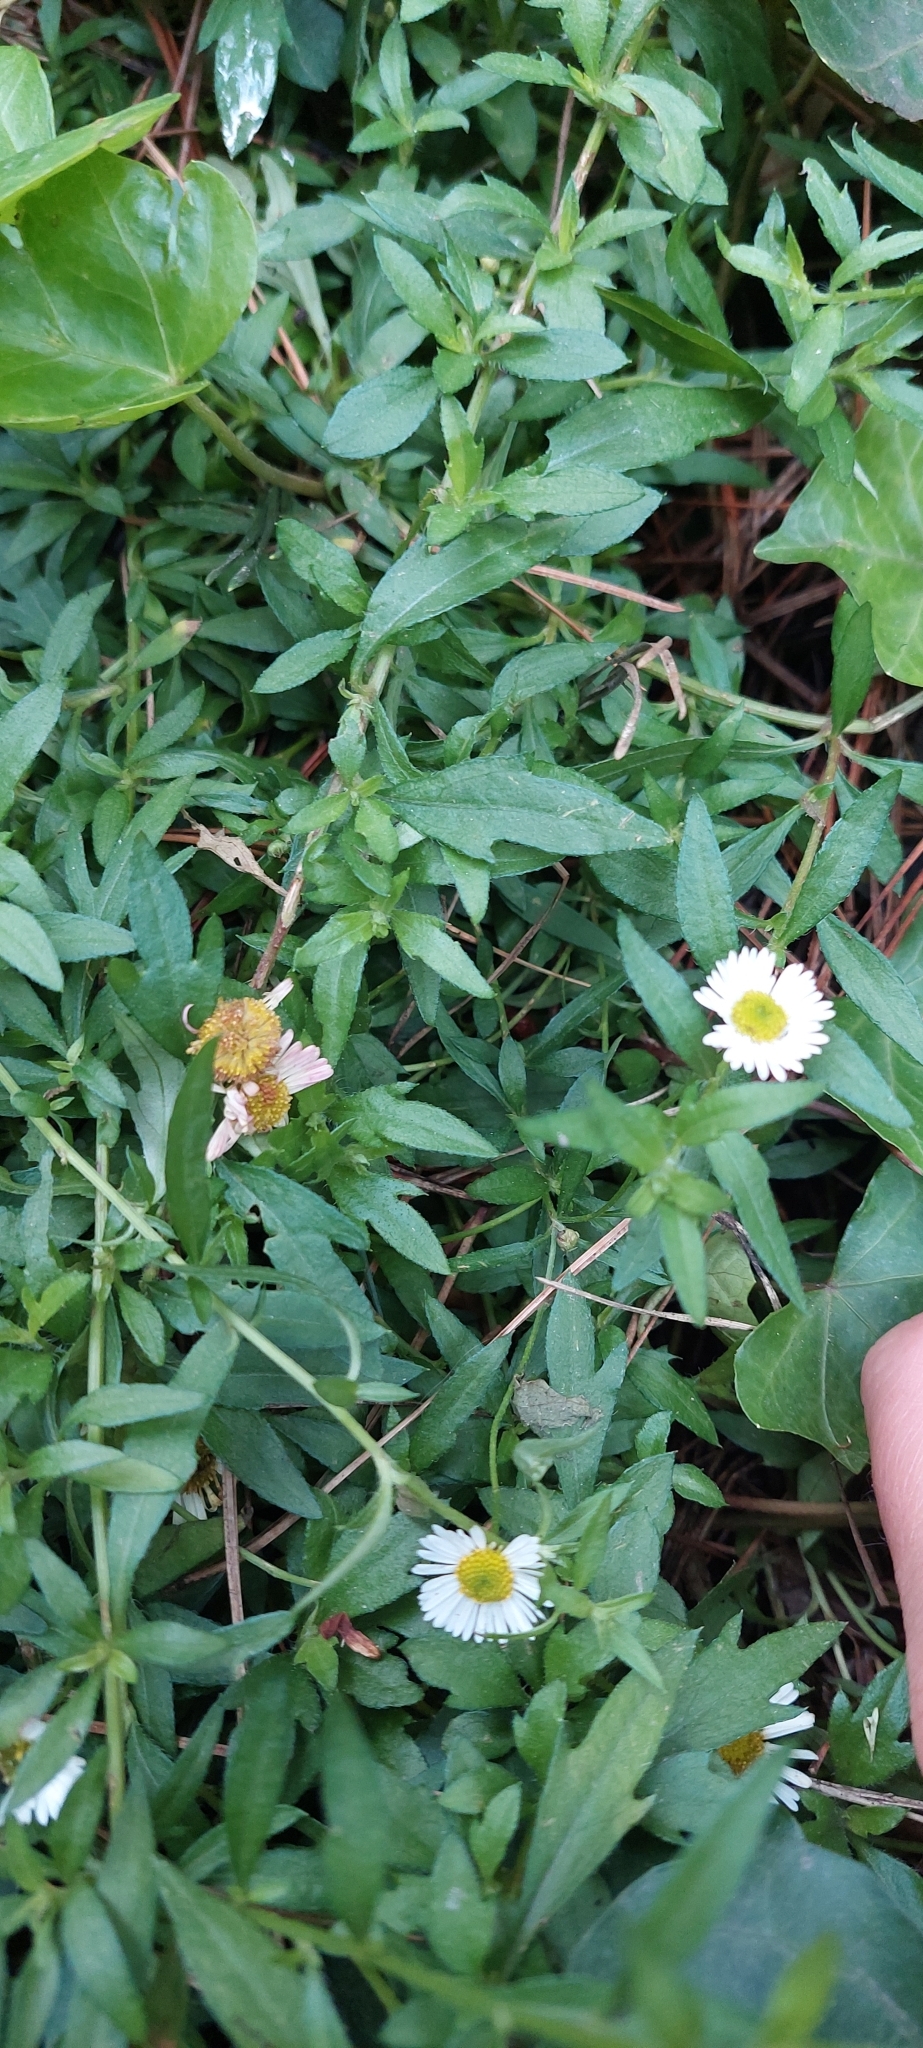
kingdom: Plantae
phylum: Tracheophyta
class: Magnoliopsida
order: Asterales
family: Asteraceae
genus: Erigeron
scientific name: Erigeron karvinskianus
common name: Mexican fleabane
